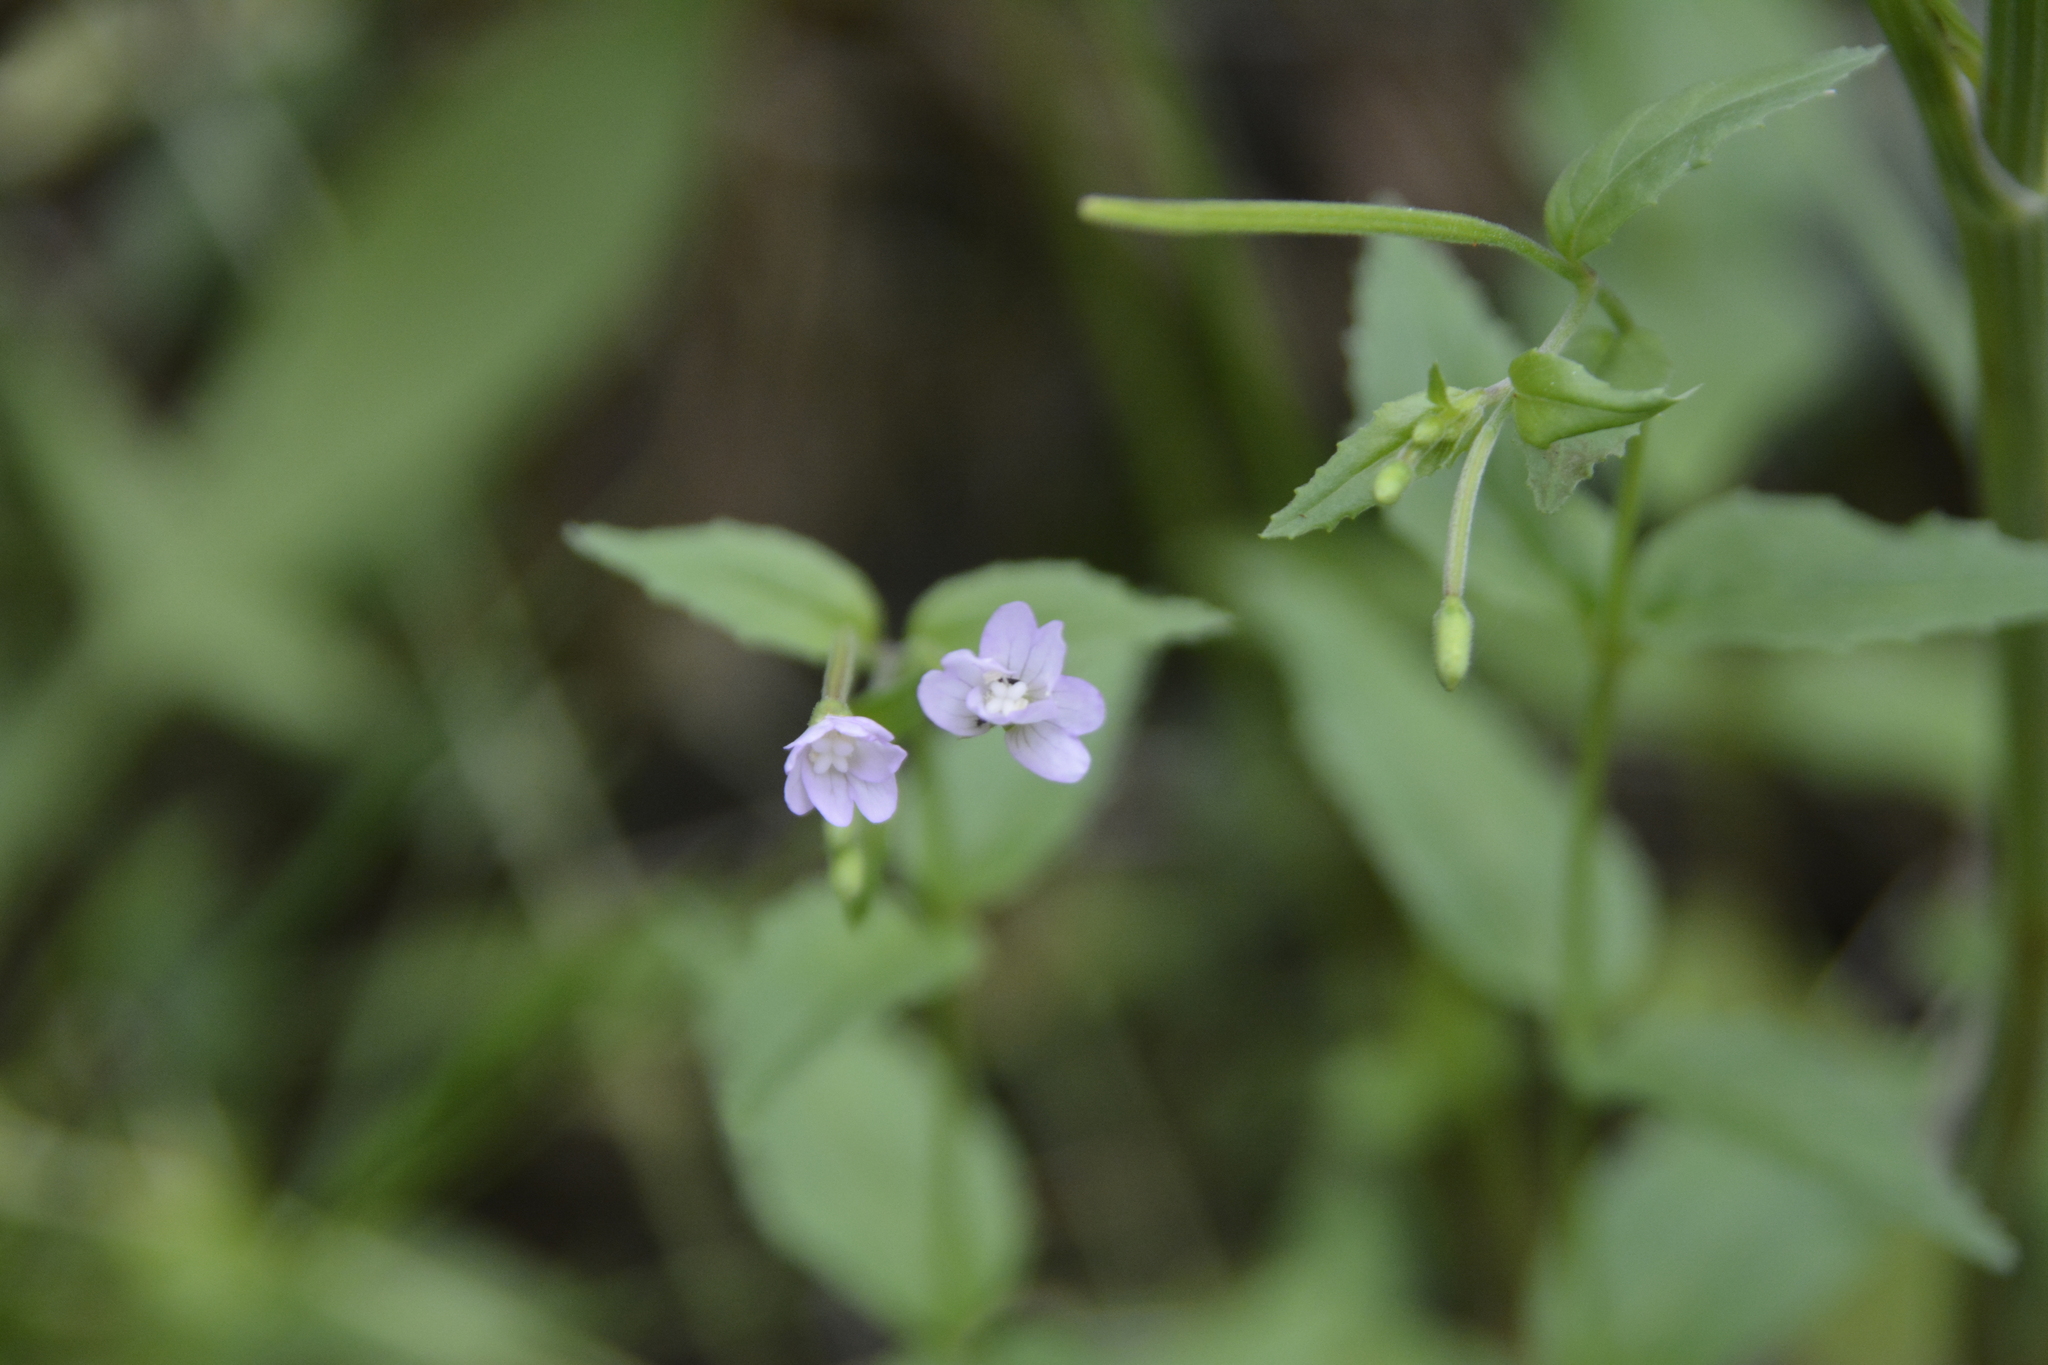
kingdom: Plantae
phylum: Tracheophyta
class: Magnoliopsida
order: Myrtales
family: Onagraceae
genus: Epilobium
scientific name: Epilobium montanum
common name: Broad-leaved willowherb
